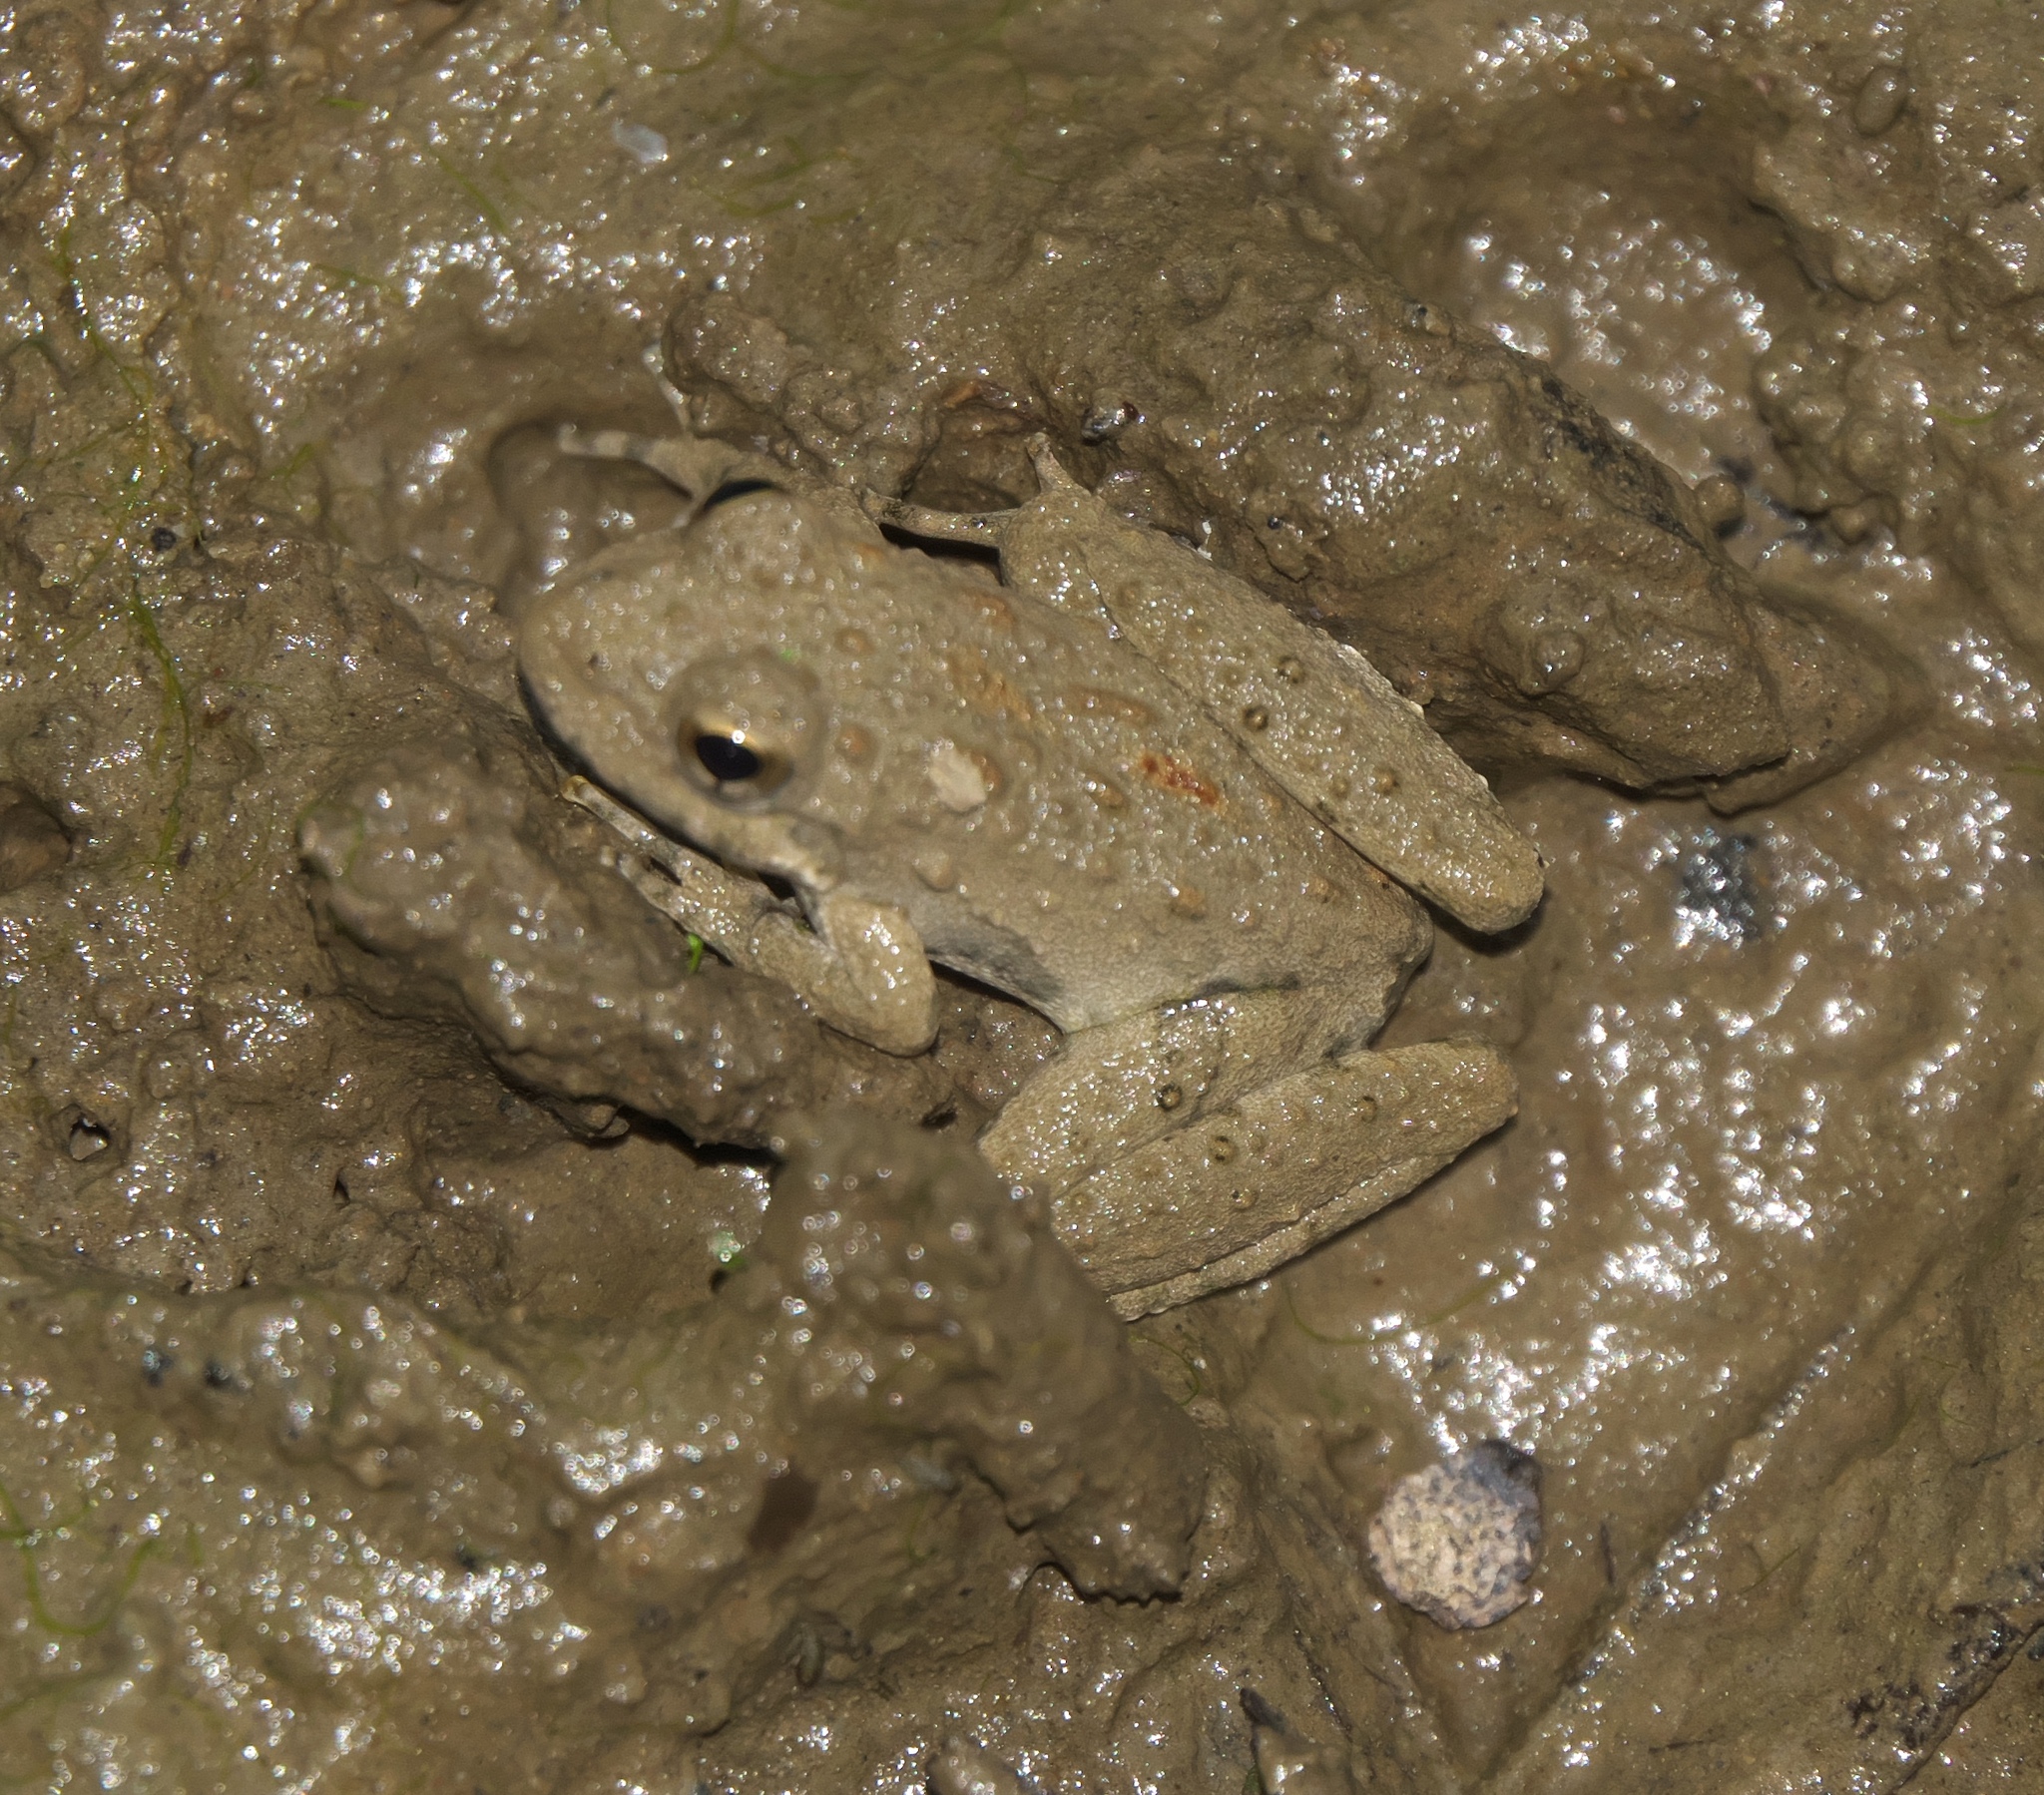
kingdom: Animalia
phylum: Chordata
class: Amphibia
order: Anura
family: Hylidae
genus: Acris
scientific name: Acris blanchardi
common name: Blanchard's cricket frog
